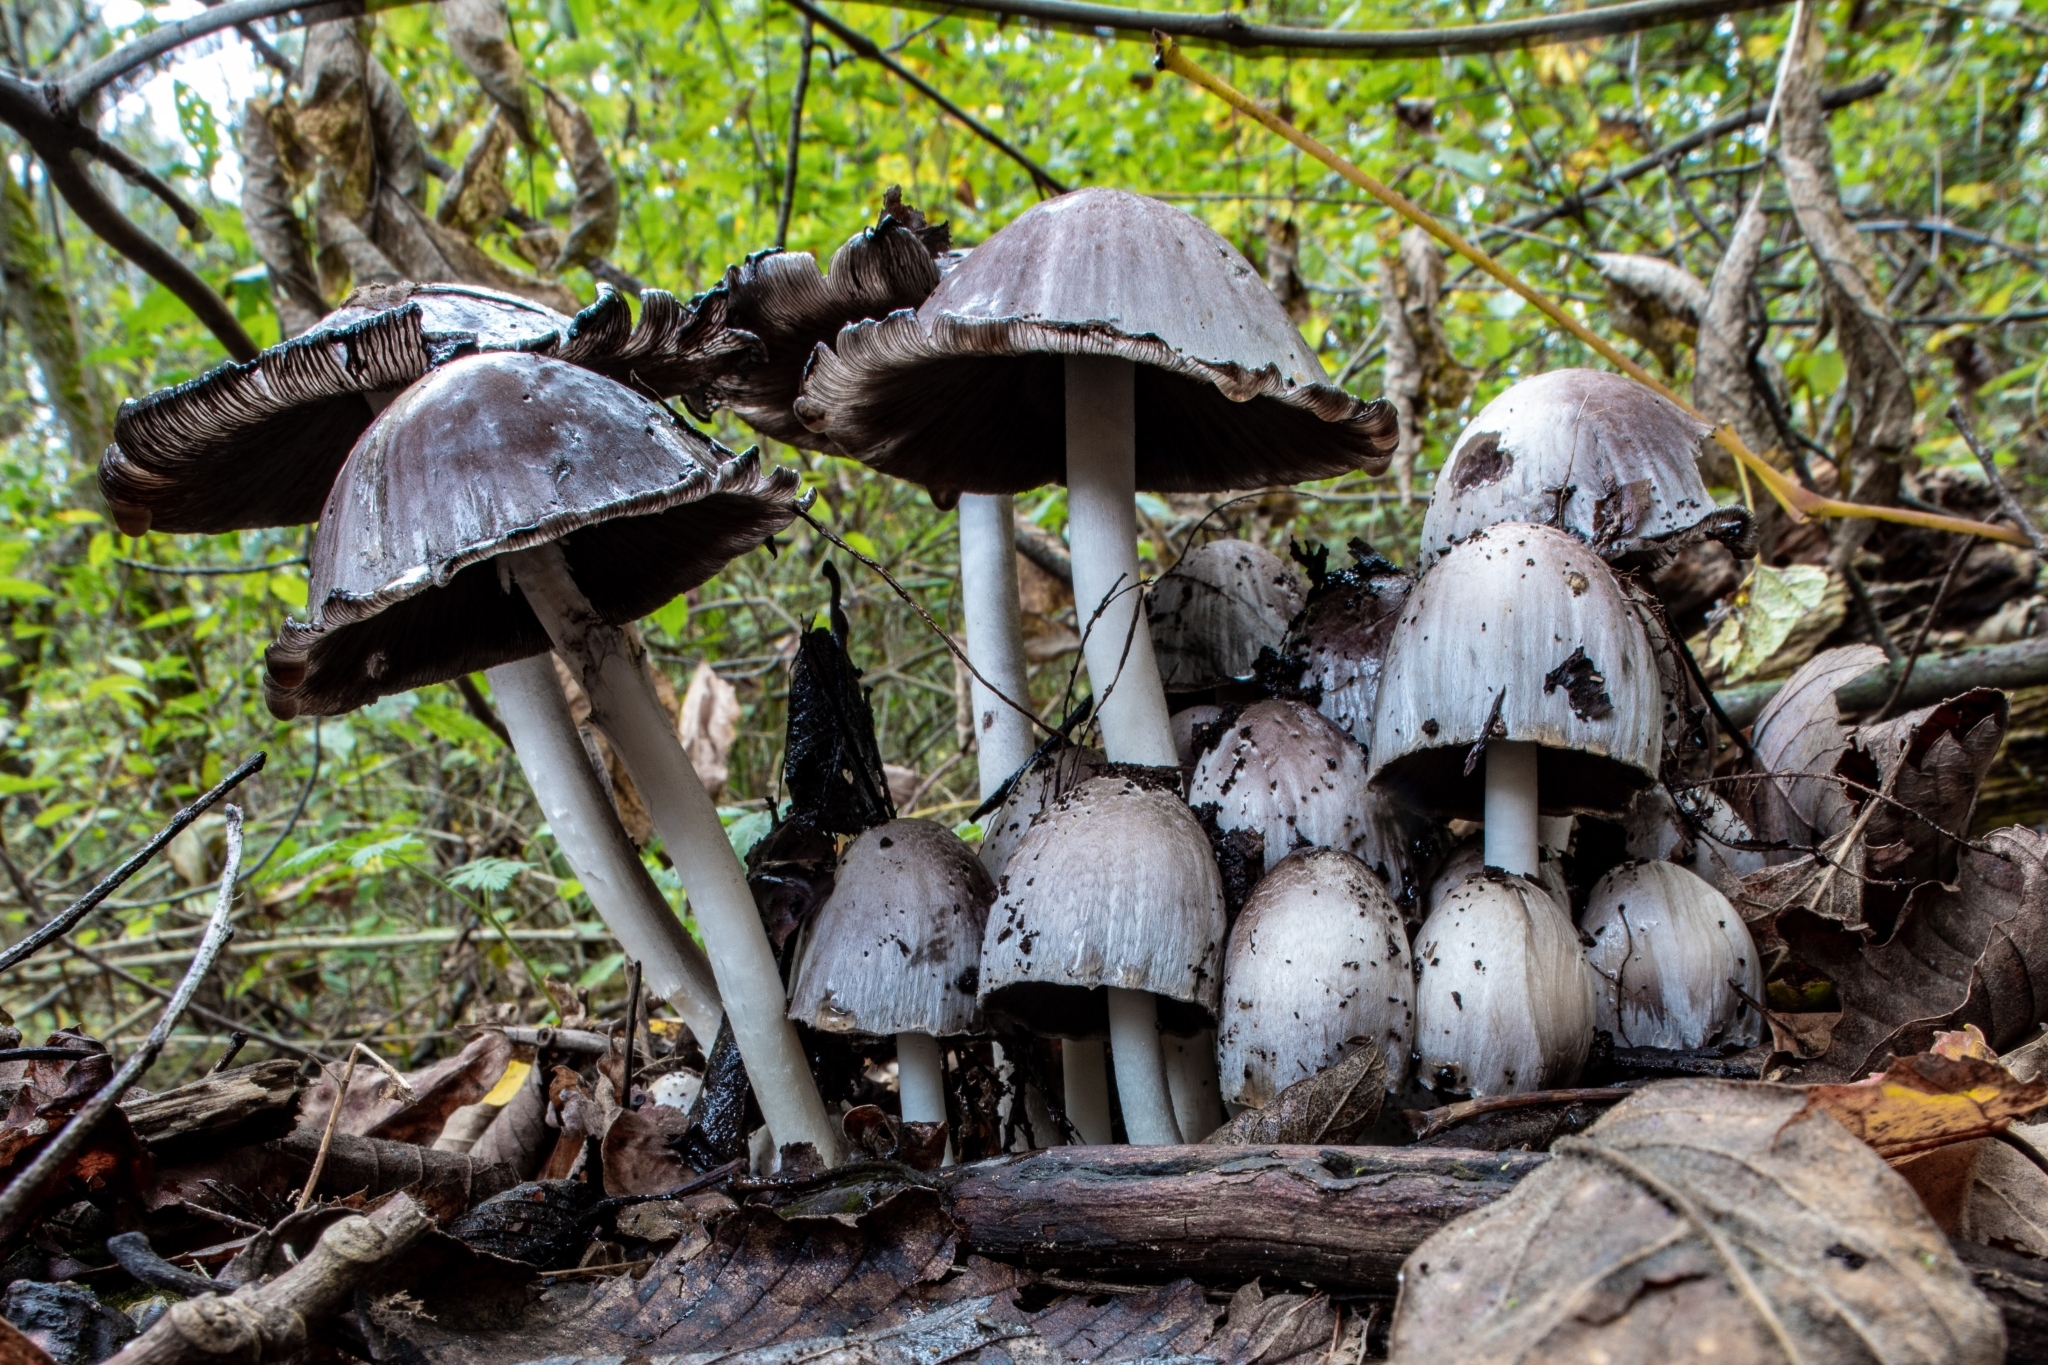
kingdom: Fungi
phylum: Basidiomycota
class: Agaricomycetes
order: Agaricales
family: Psathyrellaceae
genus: Coprinopsis
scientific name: Coprinopsis atramentaria
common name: Common ink-cap
